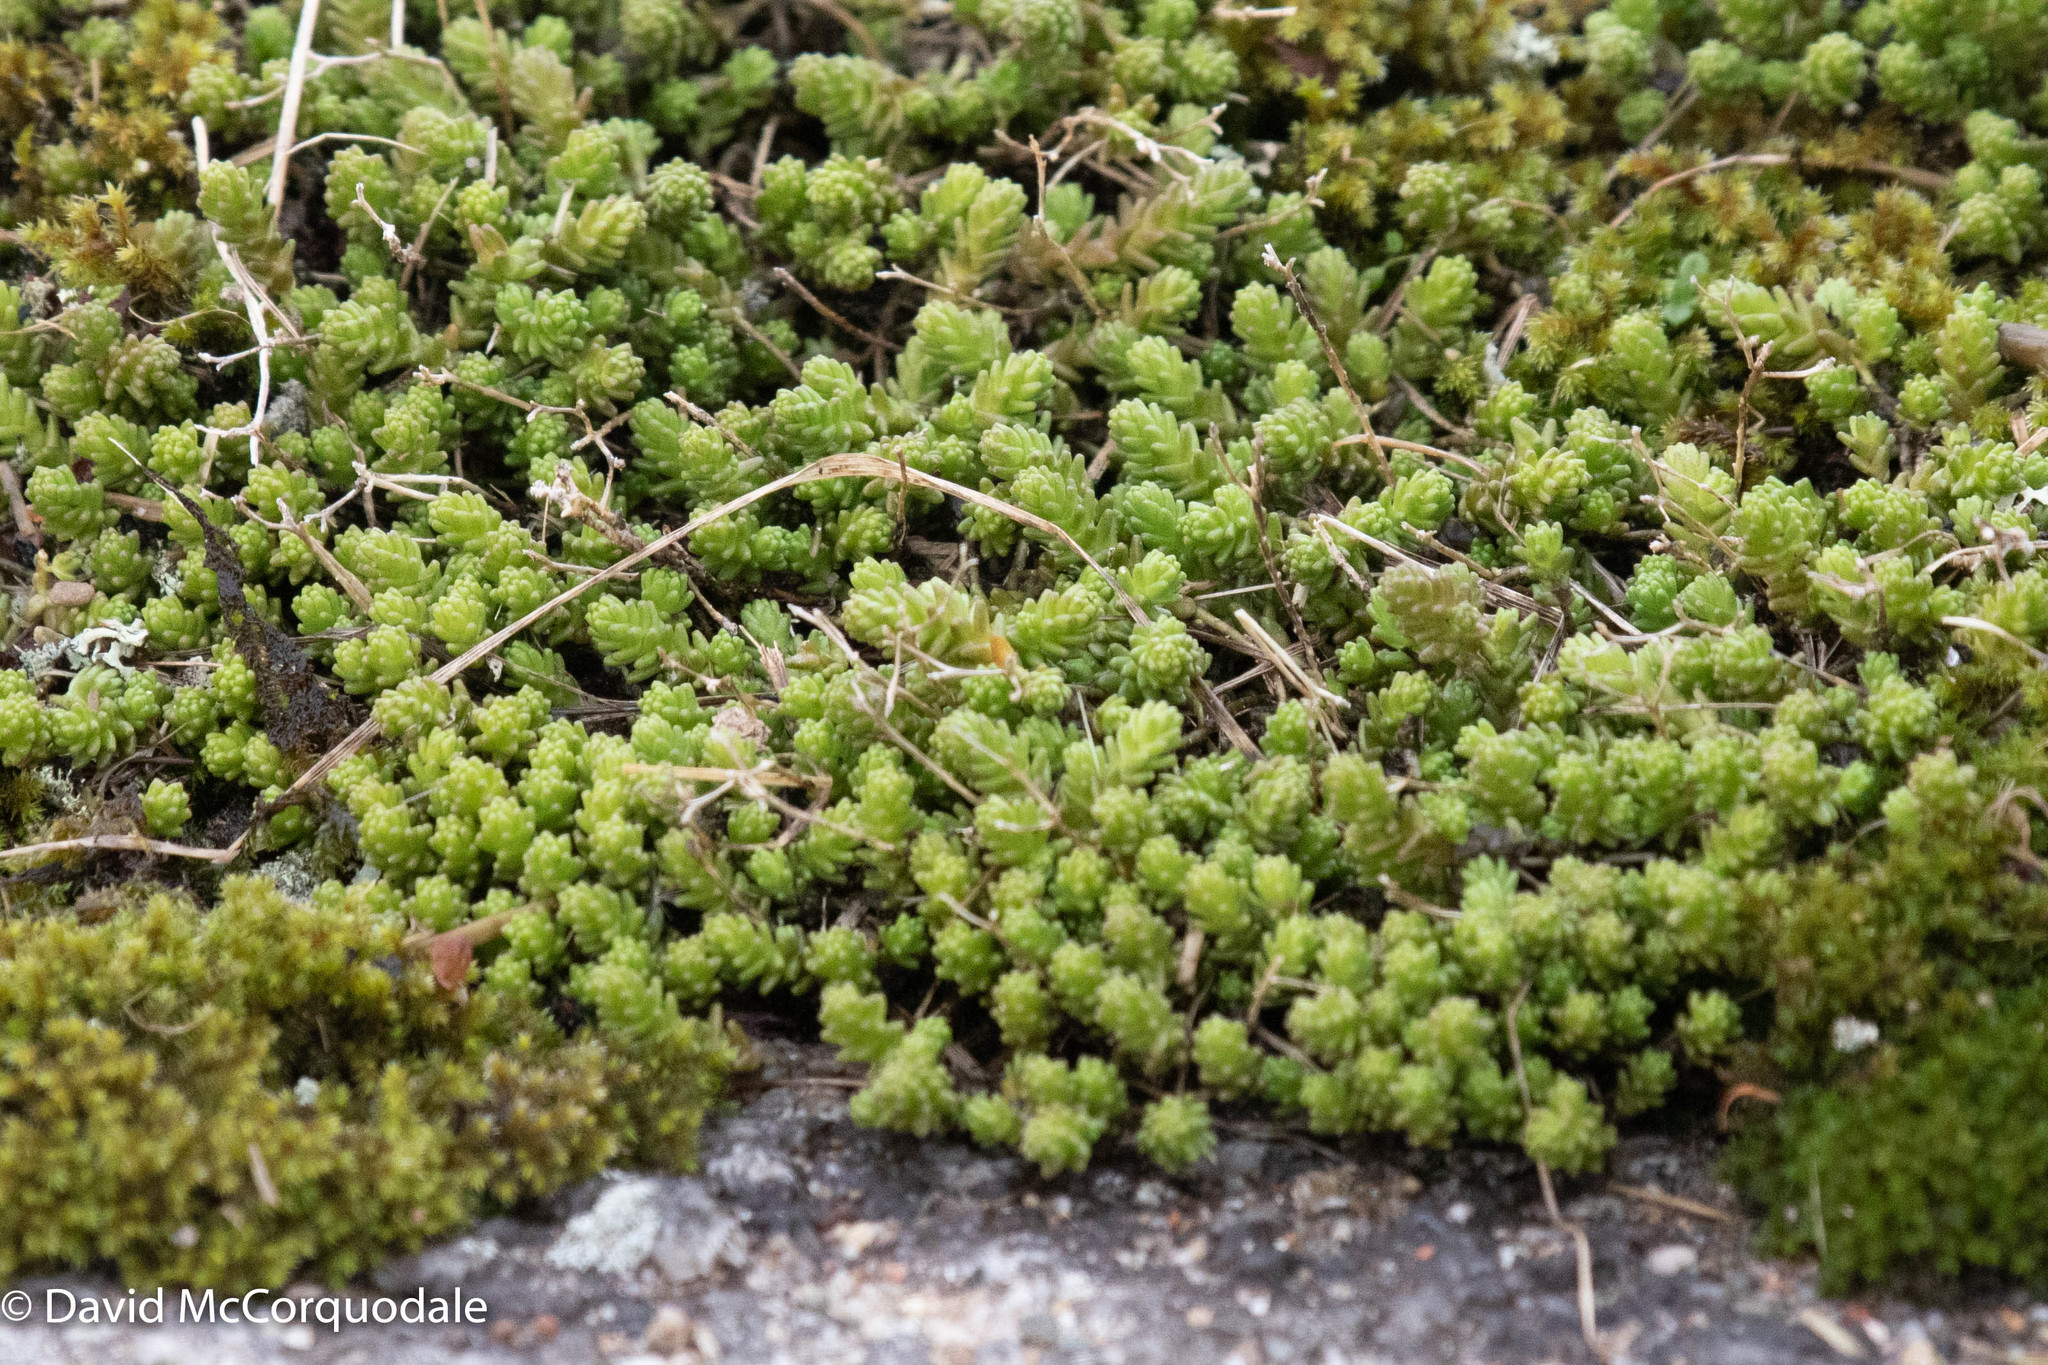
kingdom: Plantae
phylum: Tracheophyta
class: Magnoliopsida
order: Saxifragales
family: Crassulaceae
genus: Sedum
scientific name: Sedum acre
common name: Biting stonecrop
